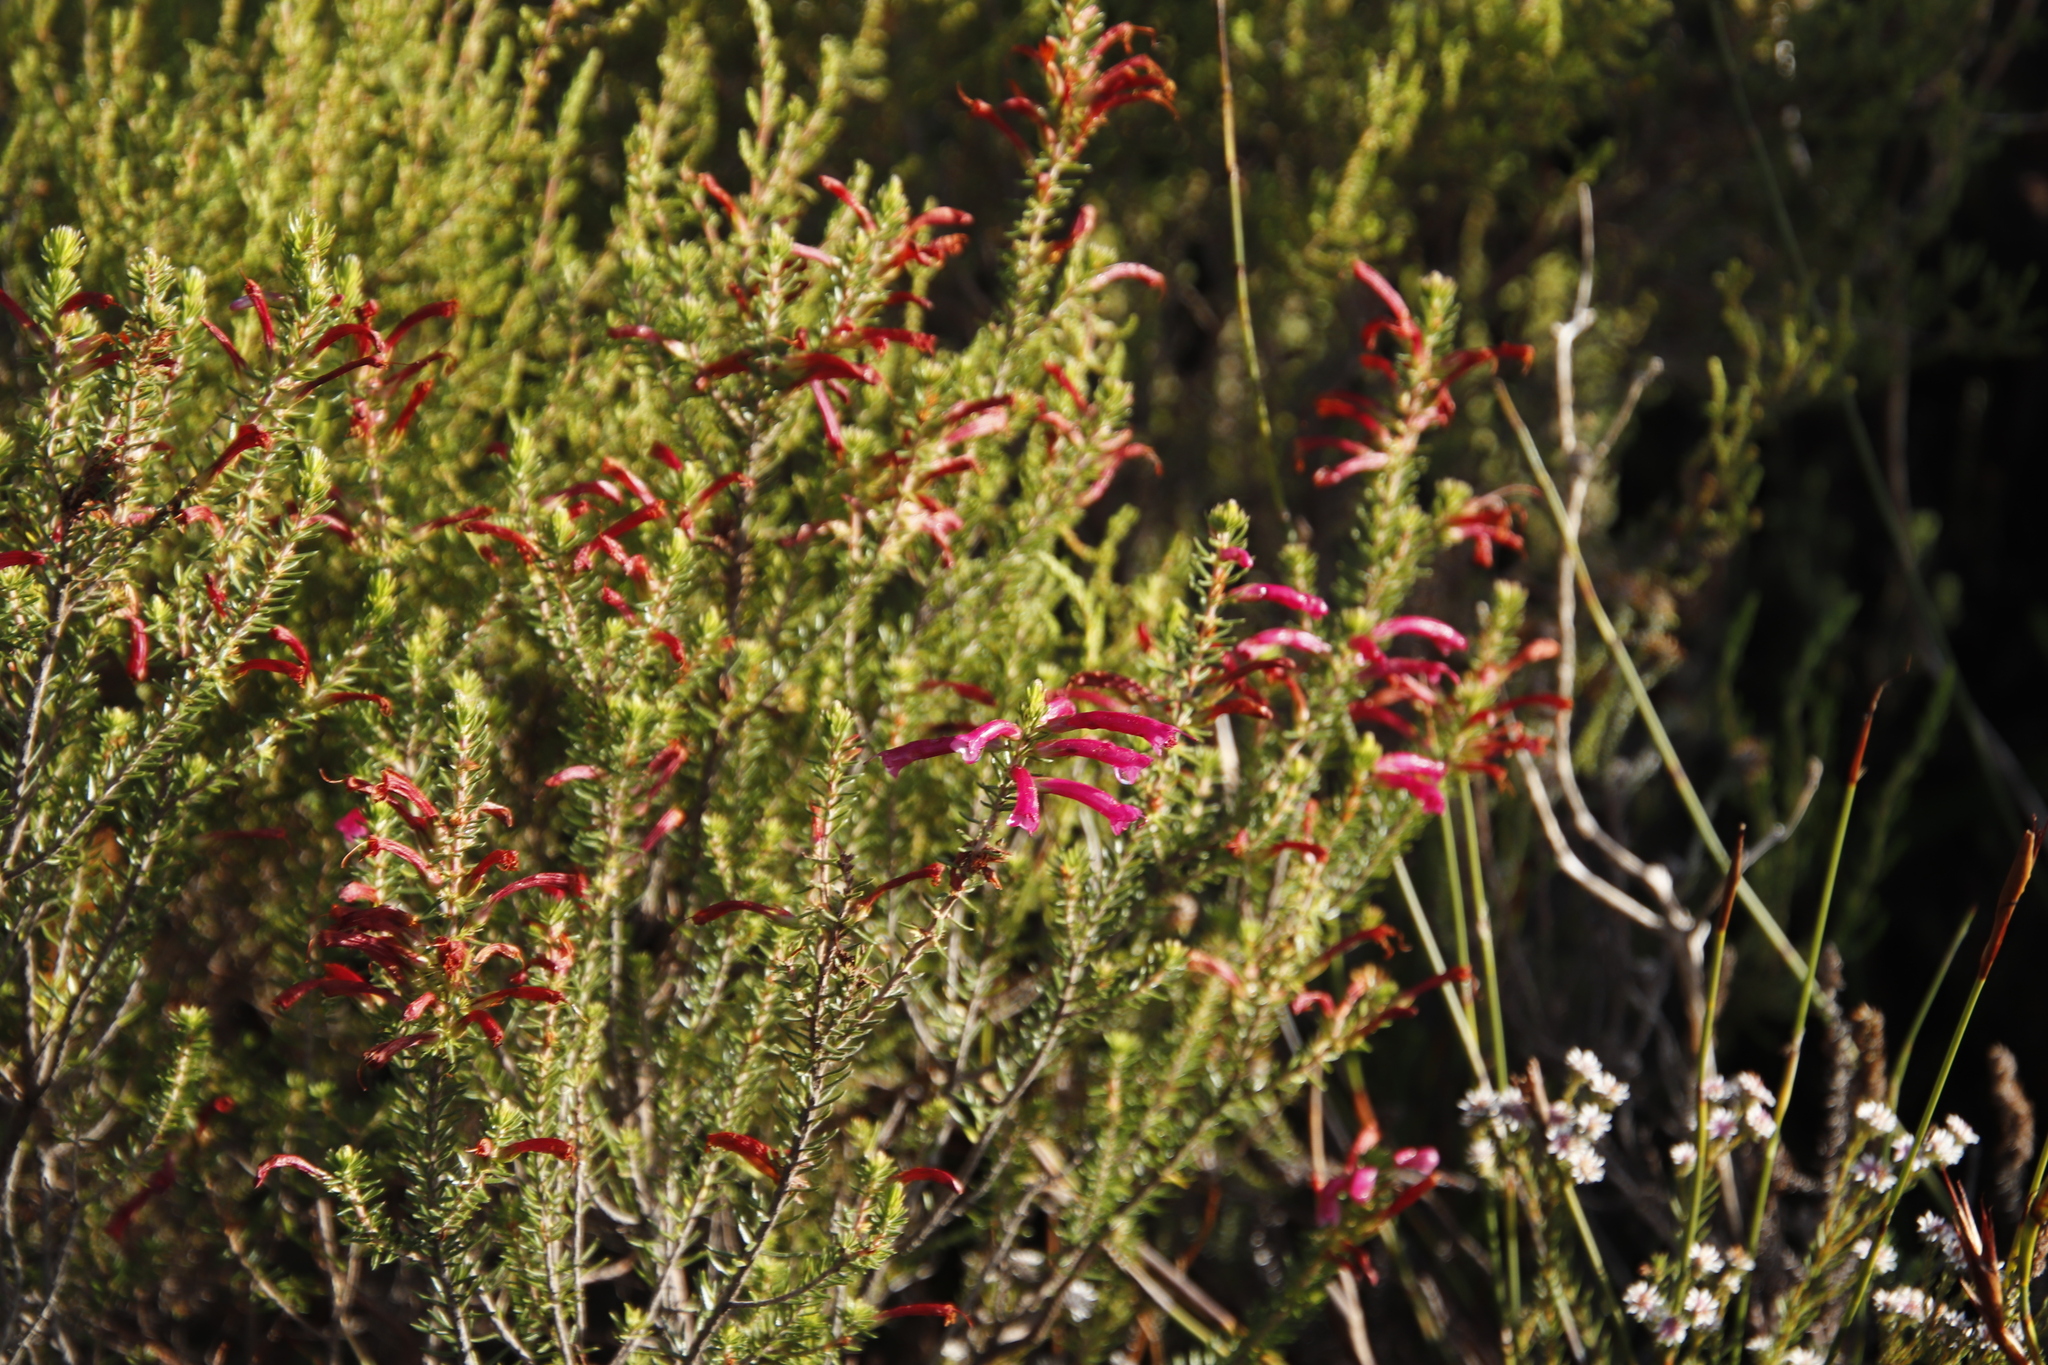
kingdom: Plantae
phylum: Tracheophyta
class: Magnoliopsida
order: Ericales
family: Ericaceae
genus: Erica
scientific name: Erica abietina
